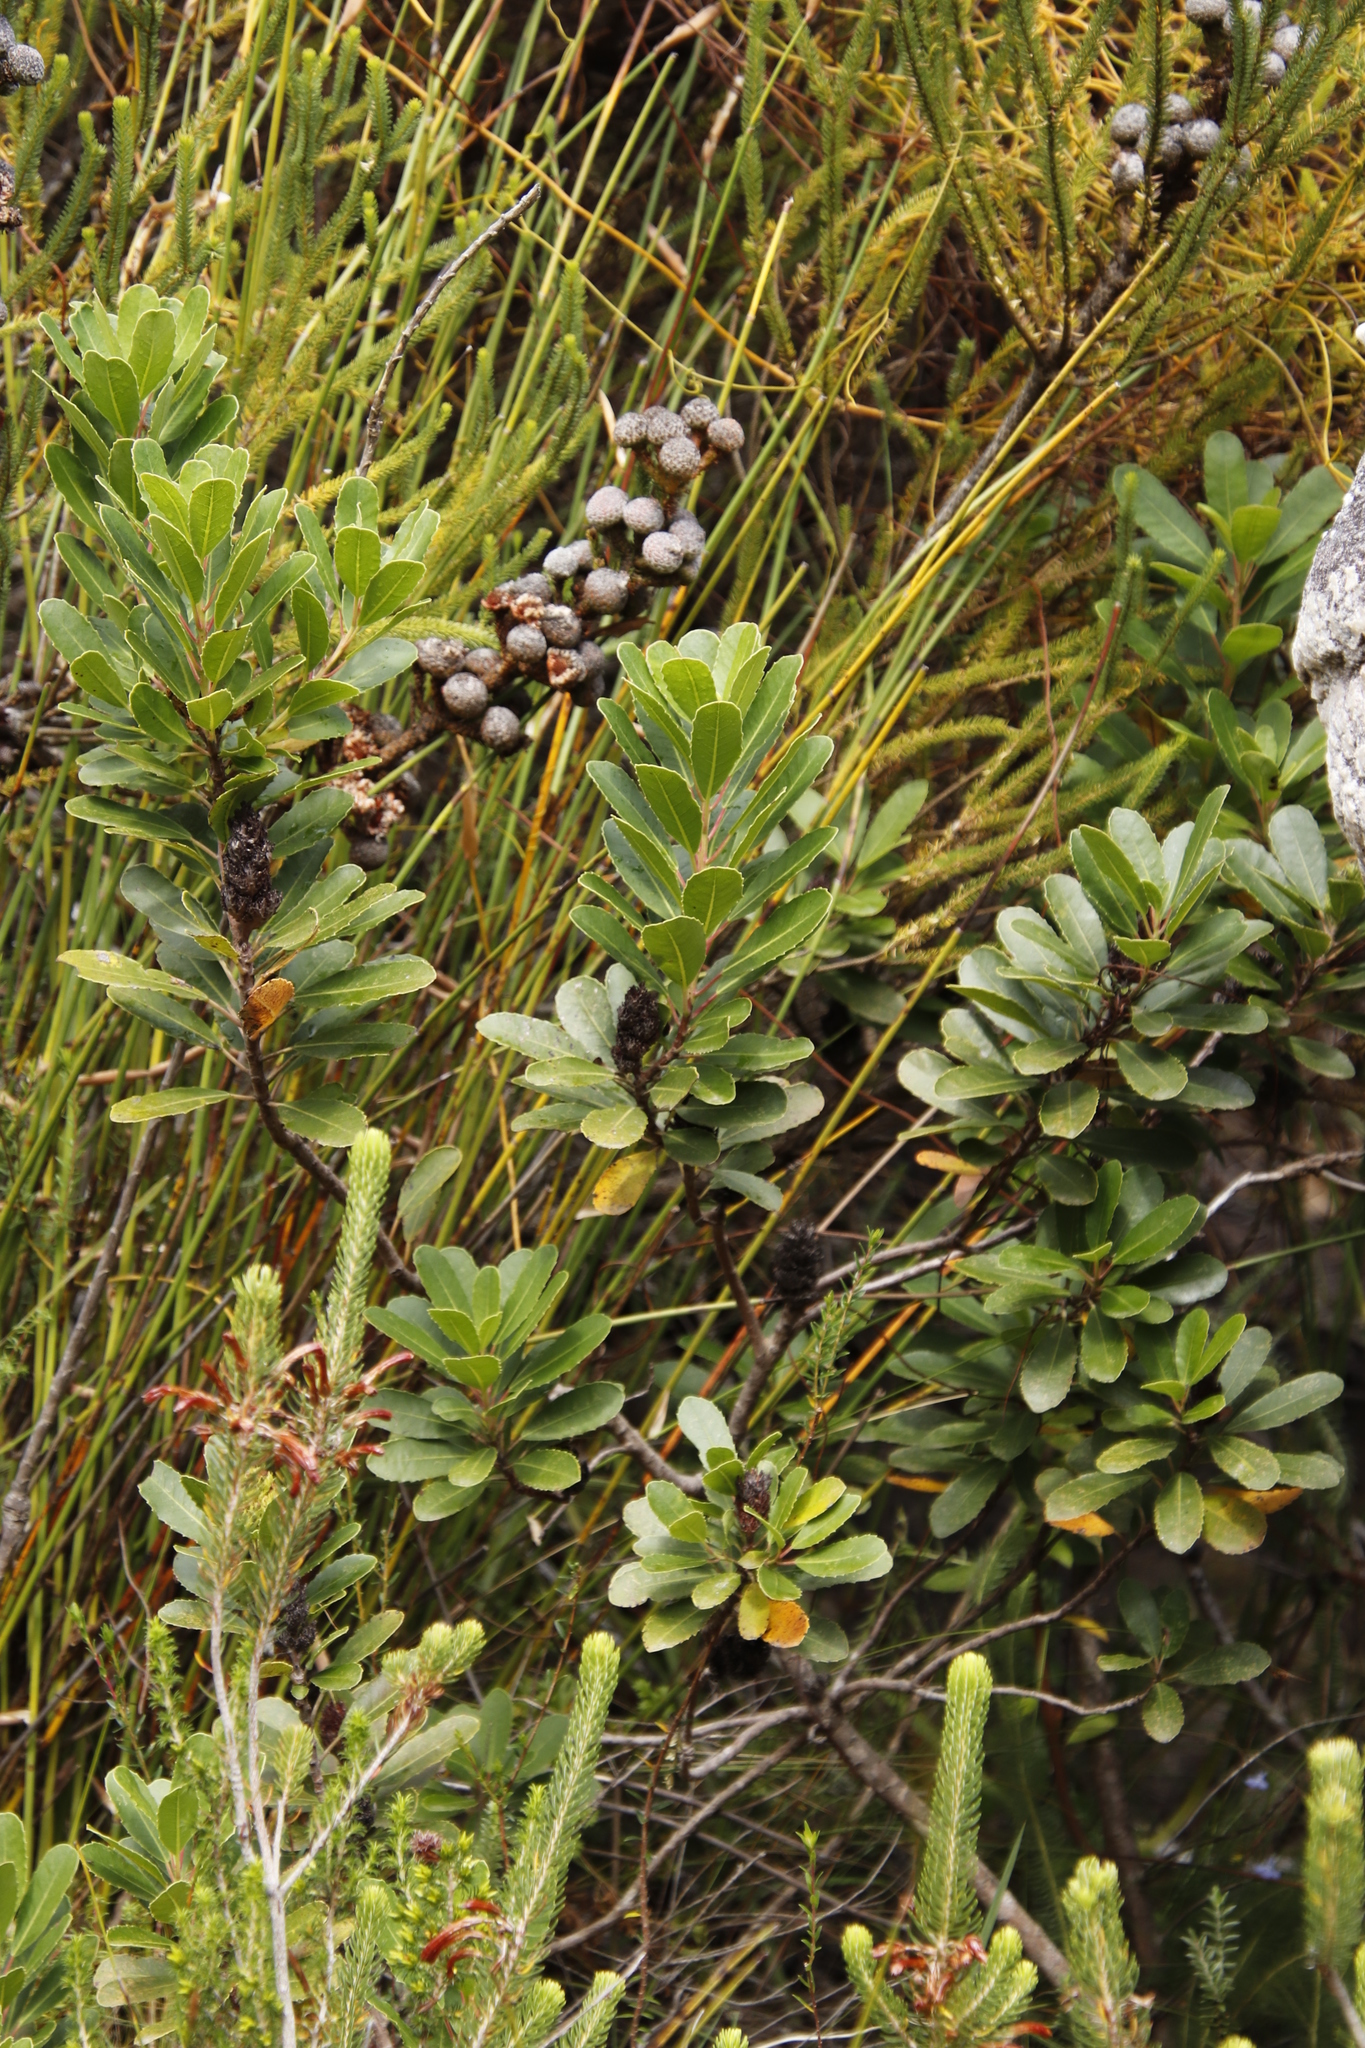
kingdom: Plantae
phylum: Tracheophyta
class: Magnoliopsida
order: Sapindales
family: Anacardiaceae
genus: Laurophyllus
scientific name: Laurophyllus capensis
